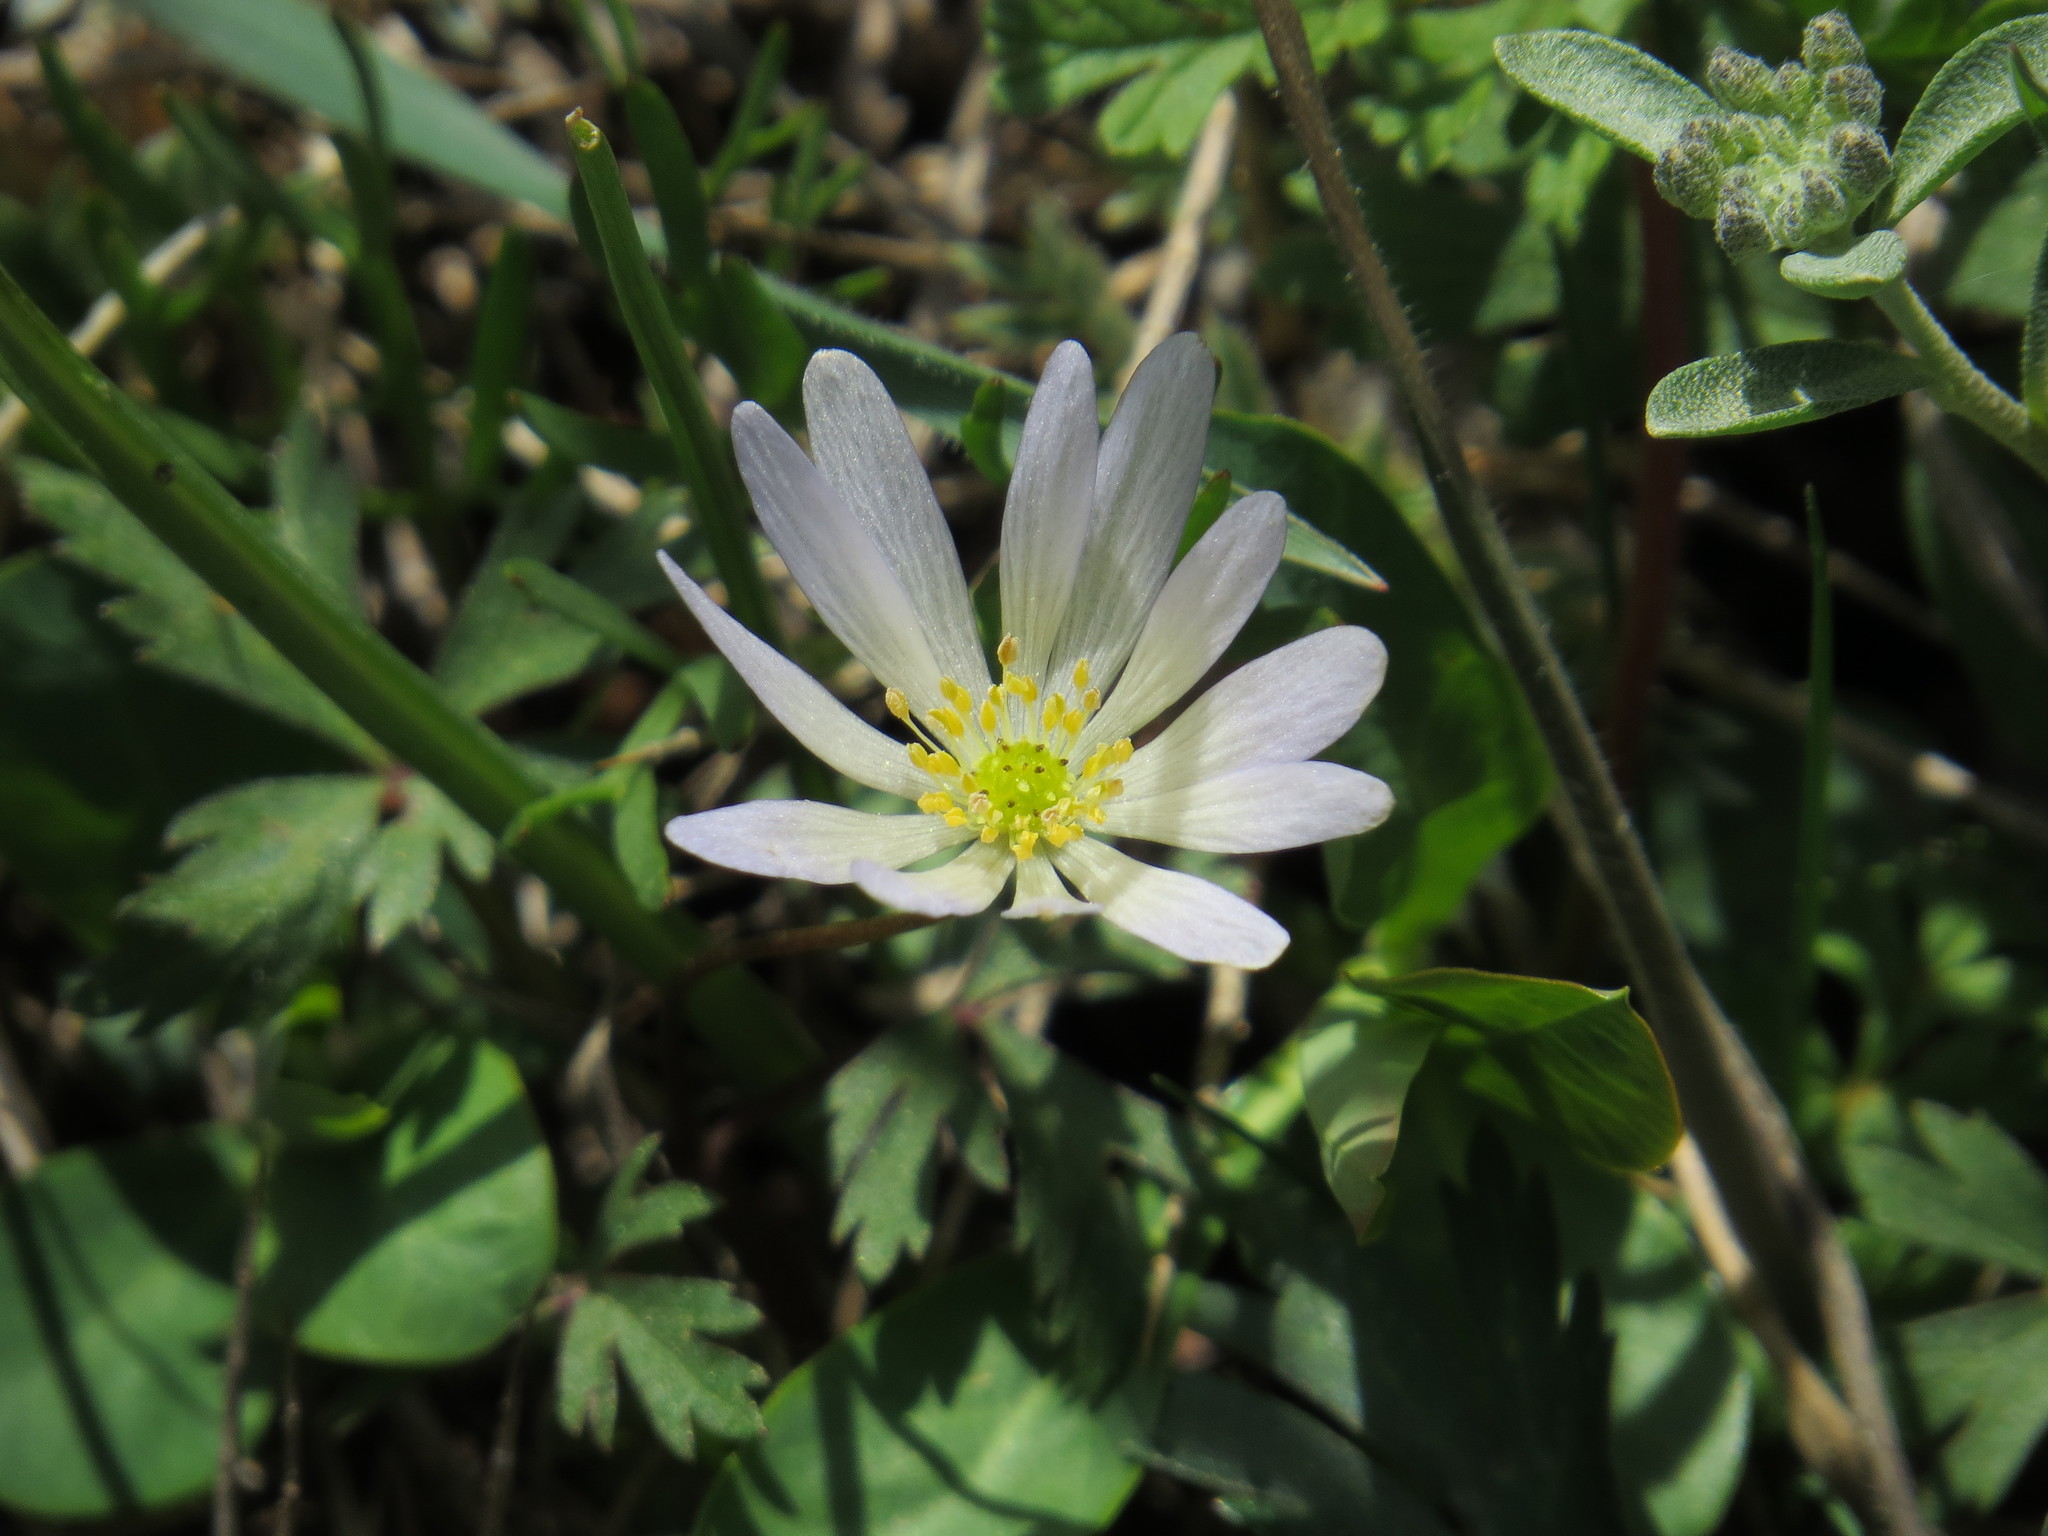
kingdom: Plantae
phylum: Tracheophyta
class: Magnoliopsida
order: Ranunculales
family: Ranunculaceae
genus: Anemone
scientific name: Anemone blanda
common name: Balkan anemone
